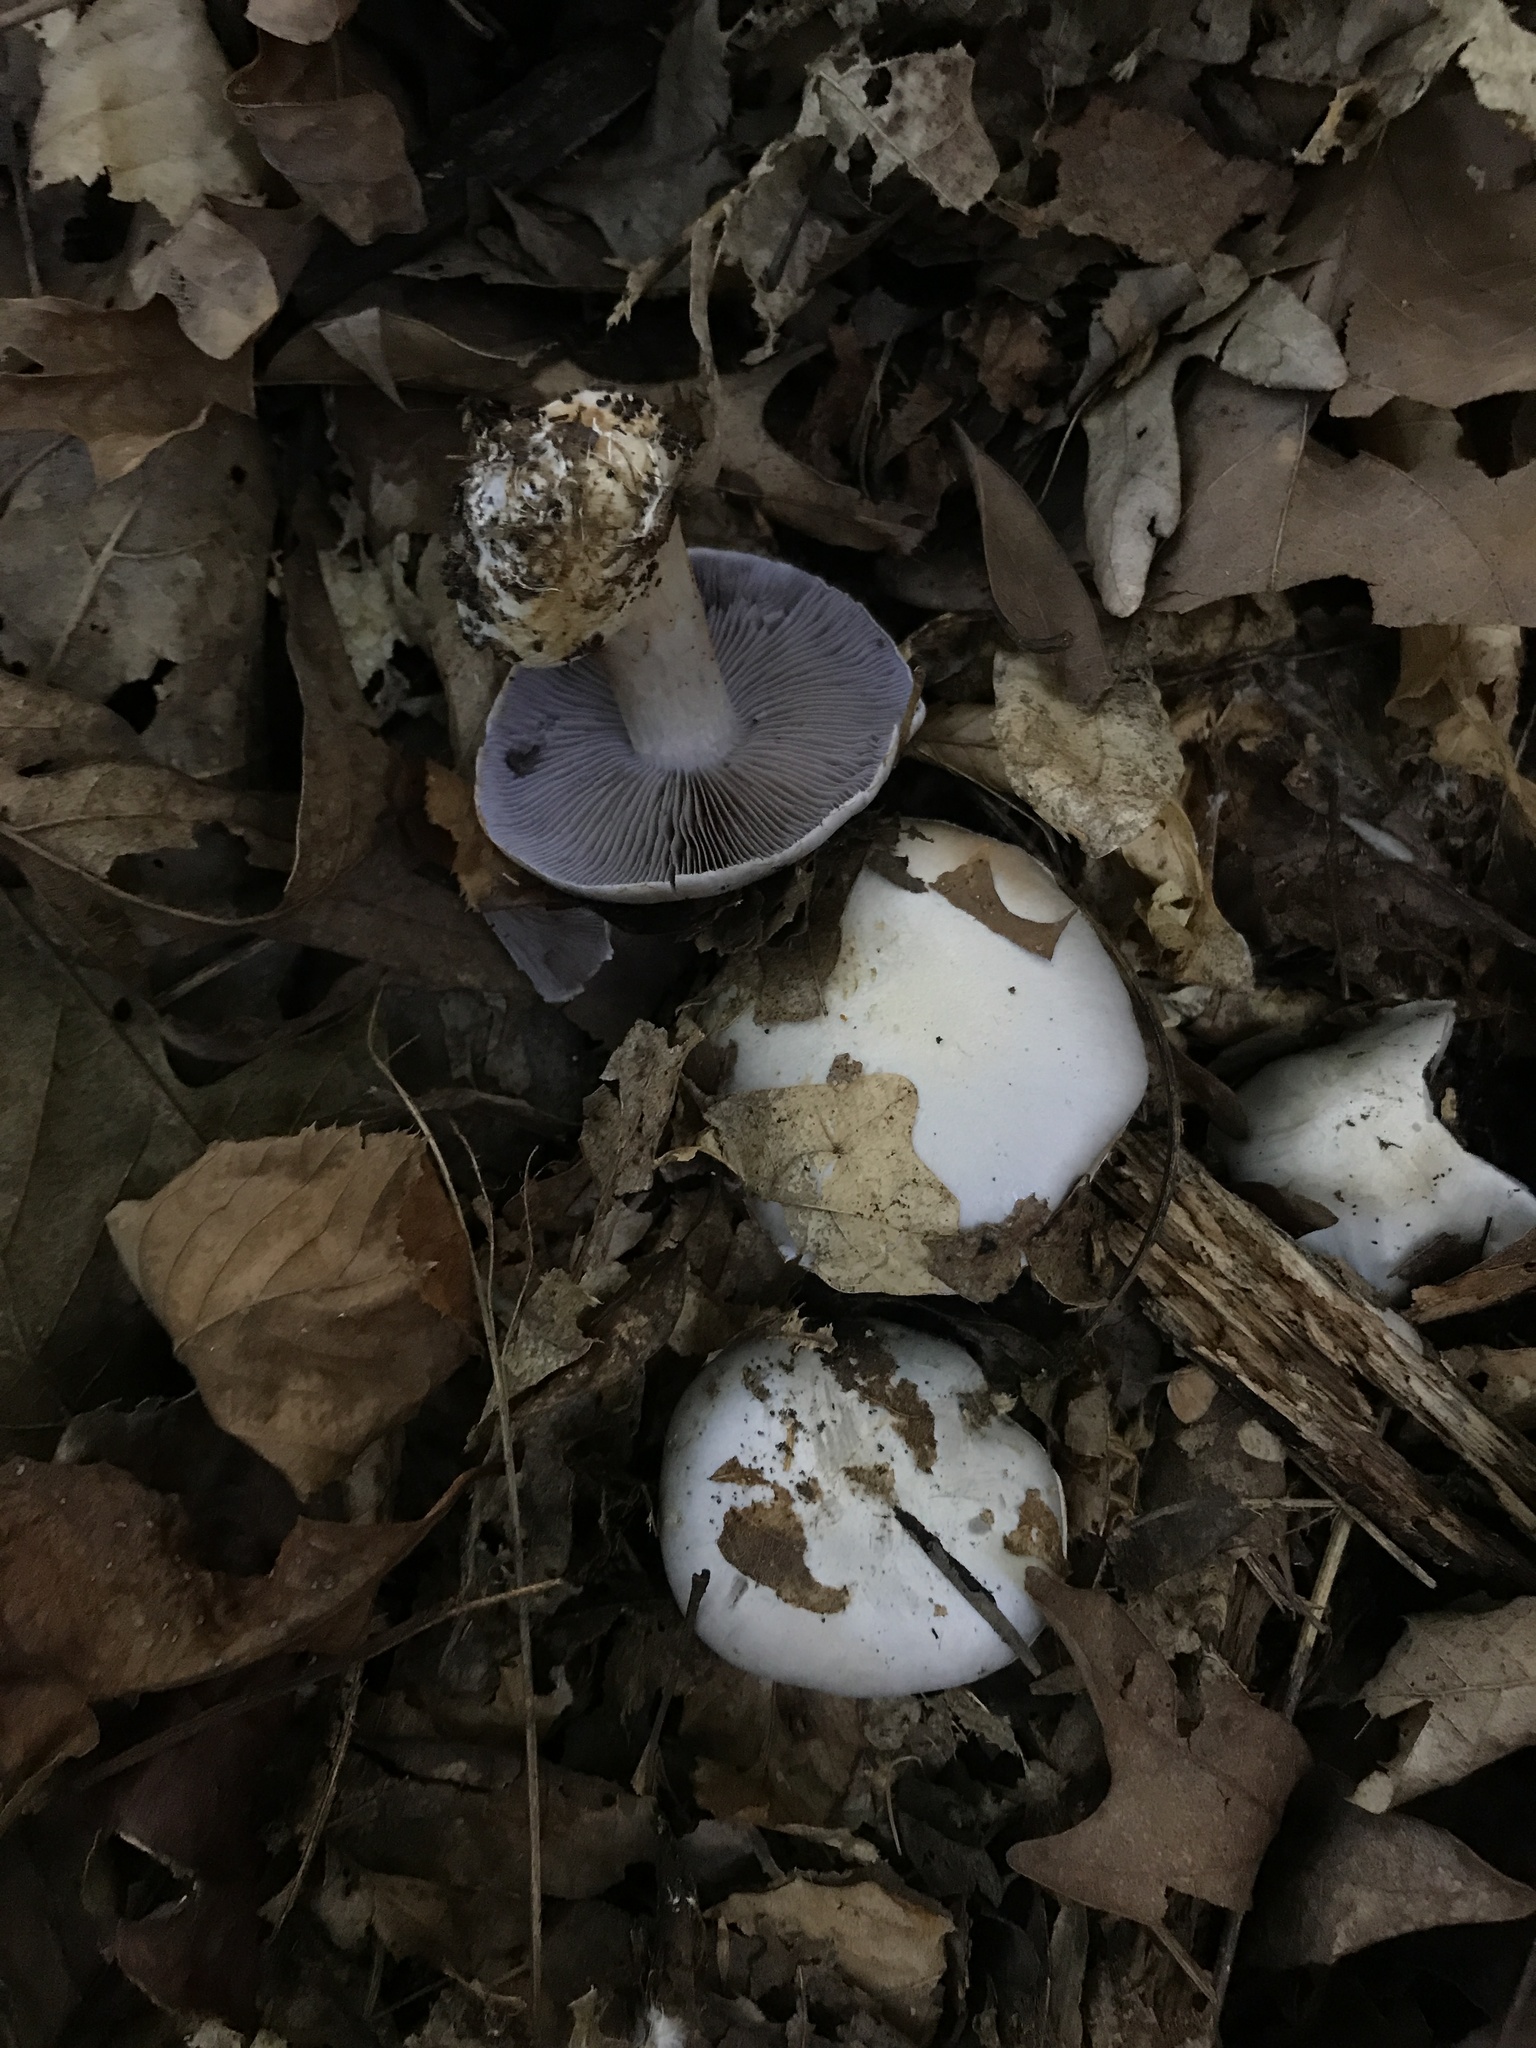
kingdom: Fungi
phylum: Basidiomycota
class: Agaricomycetes
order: Agaricales
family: Tricholomataceae
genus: Collybia
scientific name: Collybia
